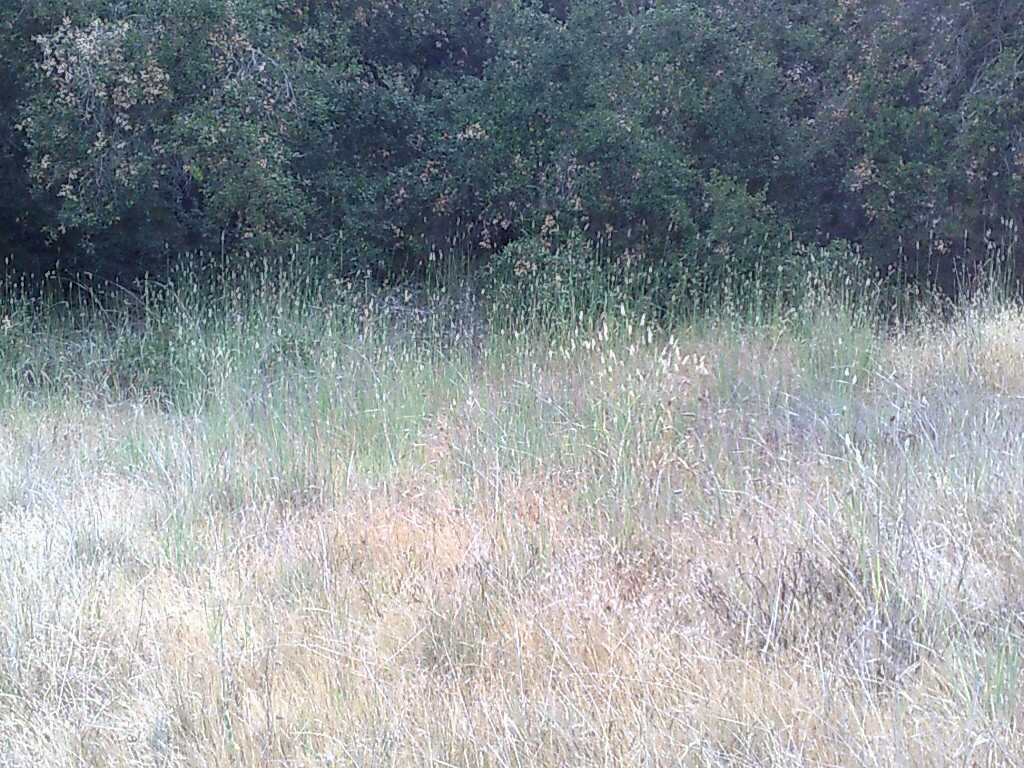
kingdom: Plantae
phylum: Tracheophyta
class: Liliopsida
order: Poales
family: Poaceae
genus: Phalaris
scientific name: Phalaris aquatica
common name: Bulbous canary-grass
